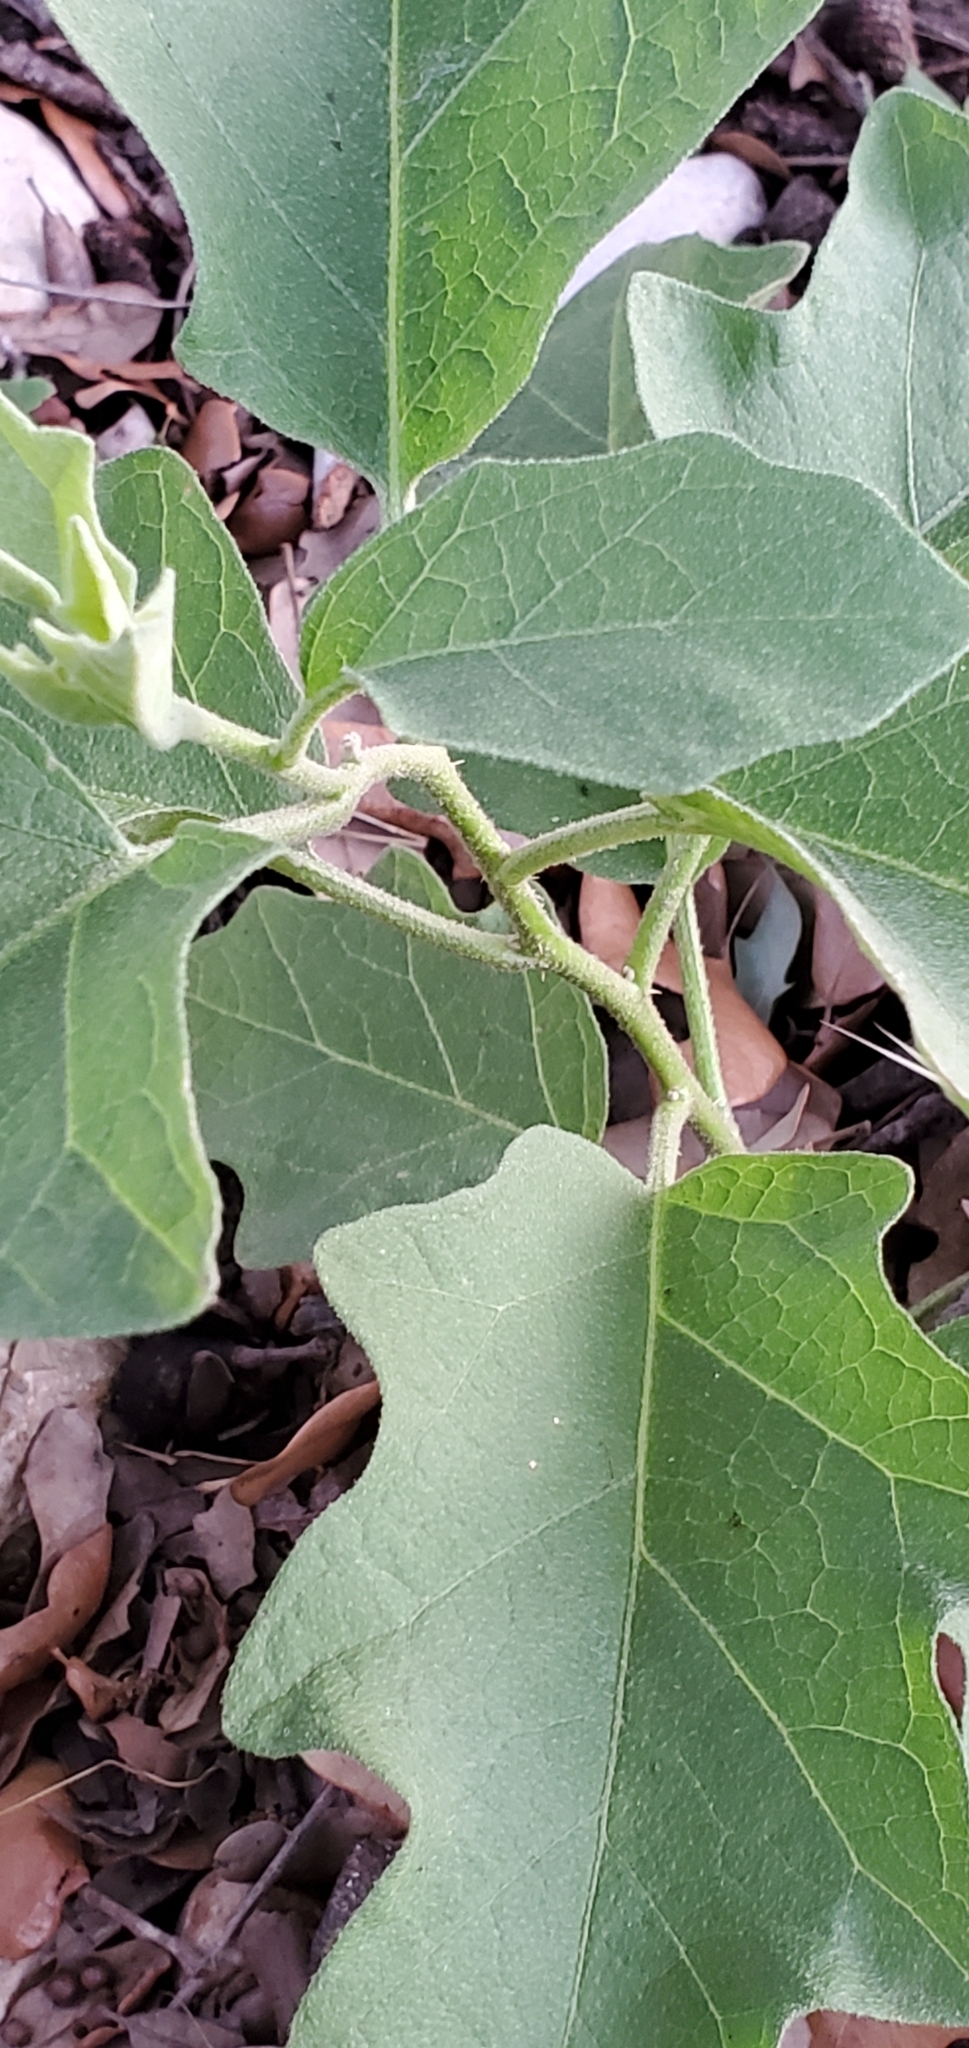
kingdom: Plantae
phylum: Tracheophyta
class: Magnoliopsida
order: Solanales
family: Solanaceae
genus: Solanum
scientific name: Solanum dimidiatum
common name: Carolina horse-nettle
